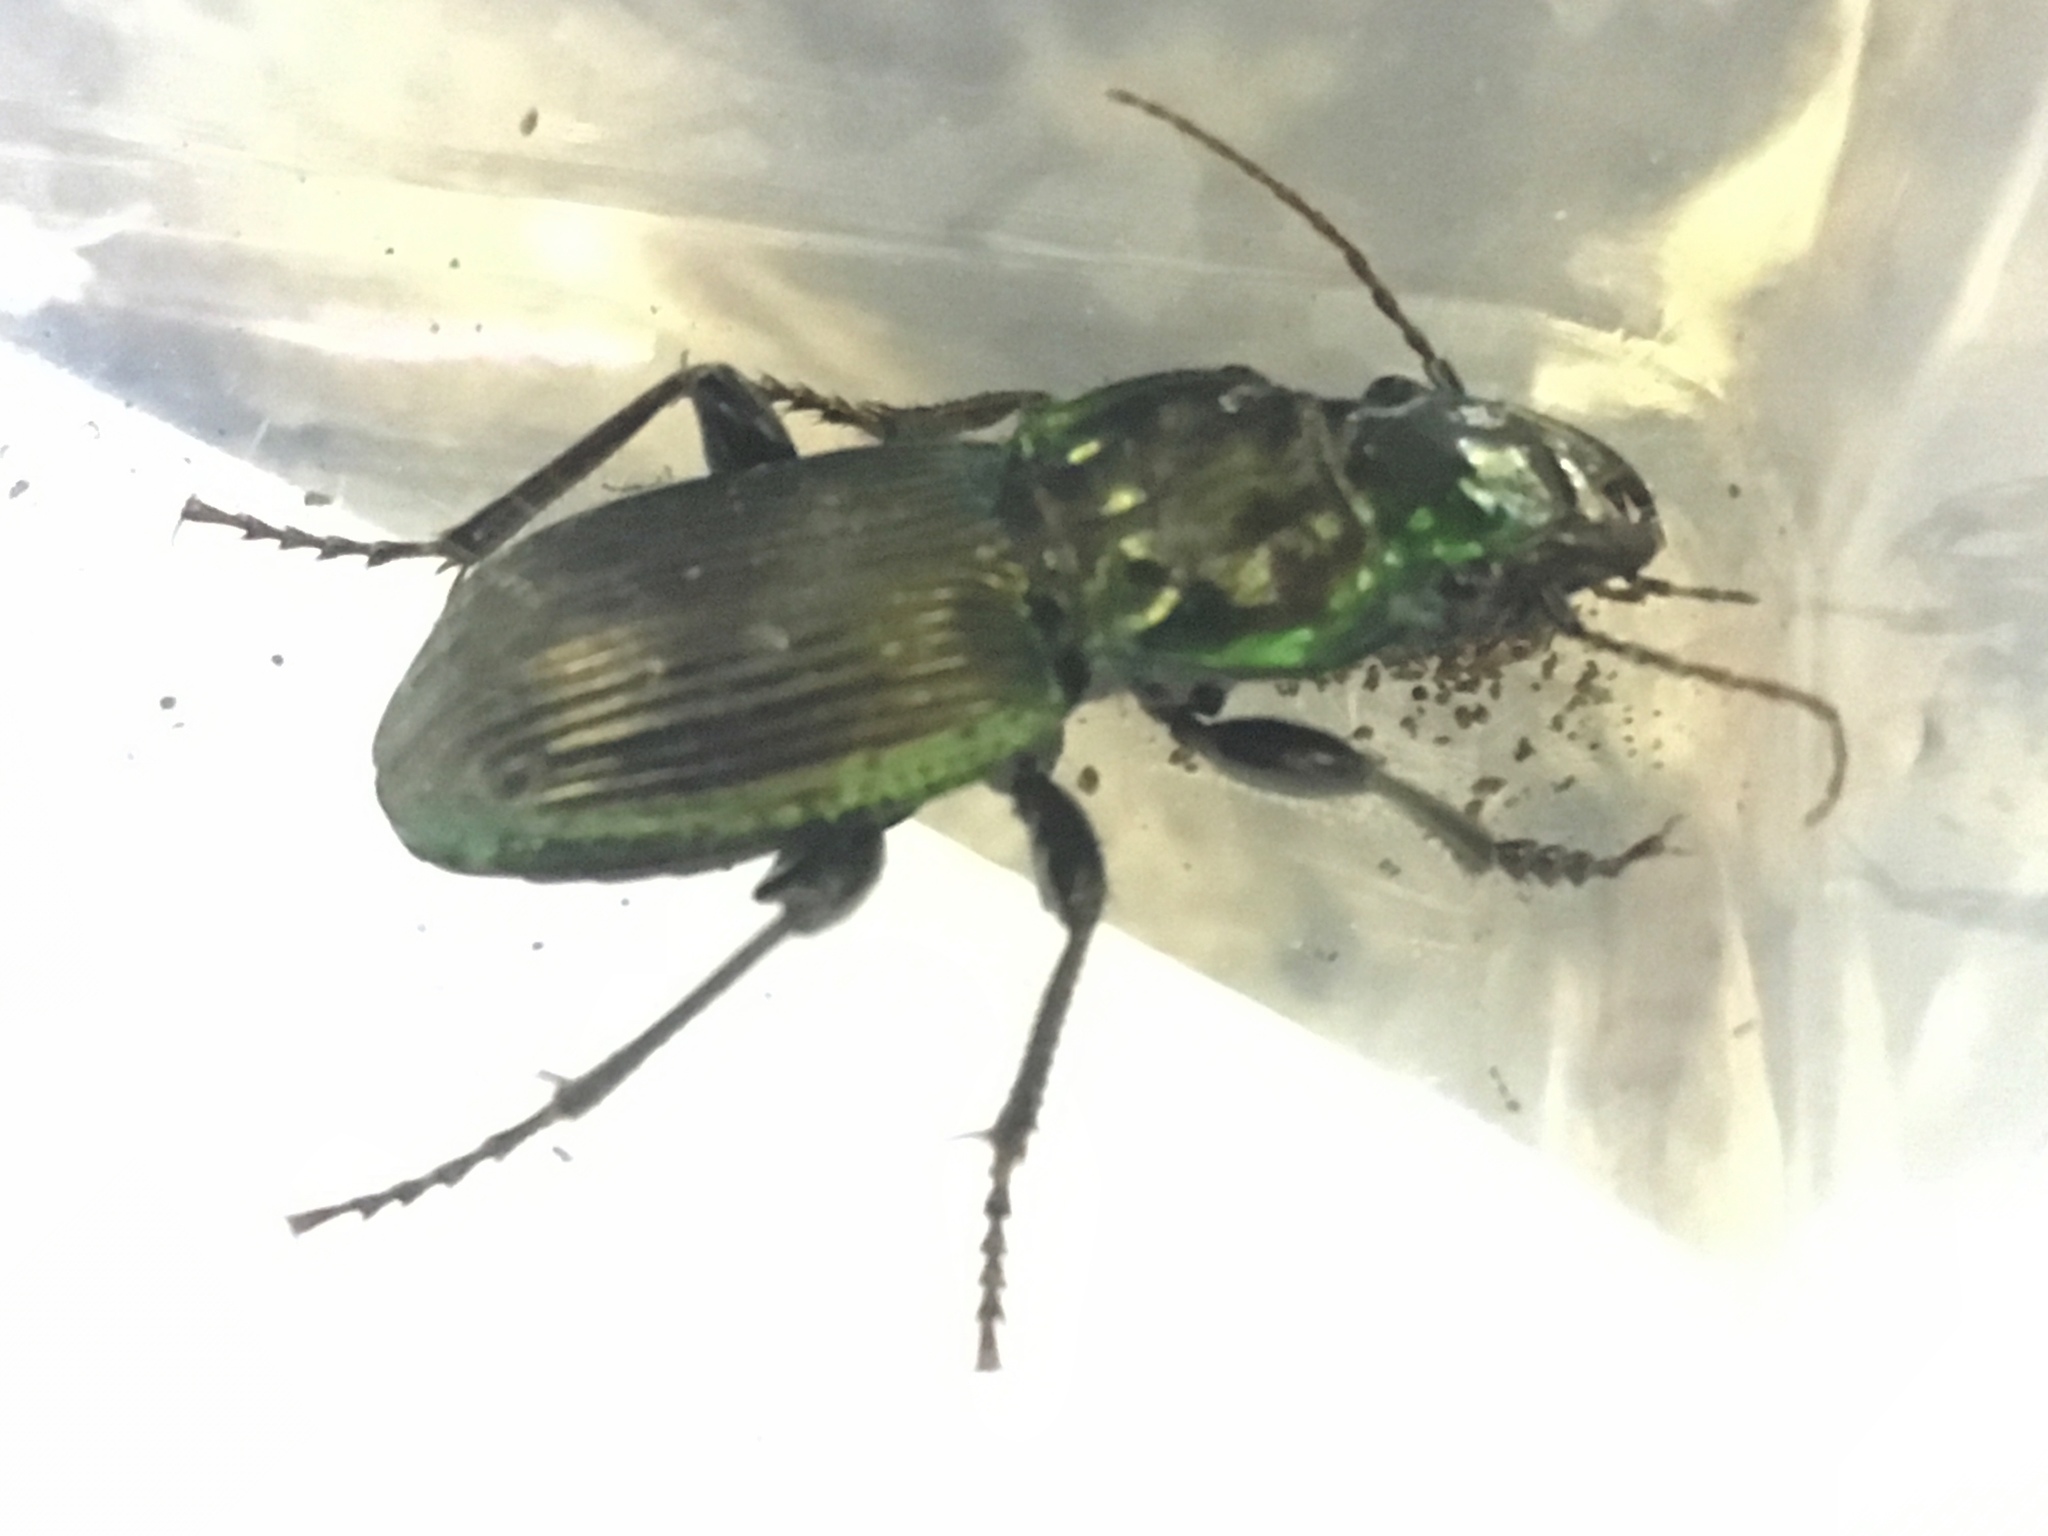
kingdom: Animalia
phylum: Arthropoda
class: Insecta
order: Coleoptera
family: Carabidae
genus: Megadromus
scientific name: Megadromus antarcticus
